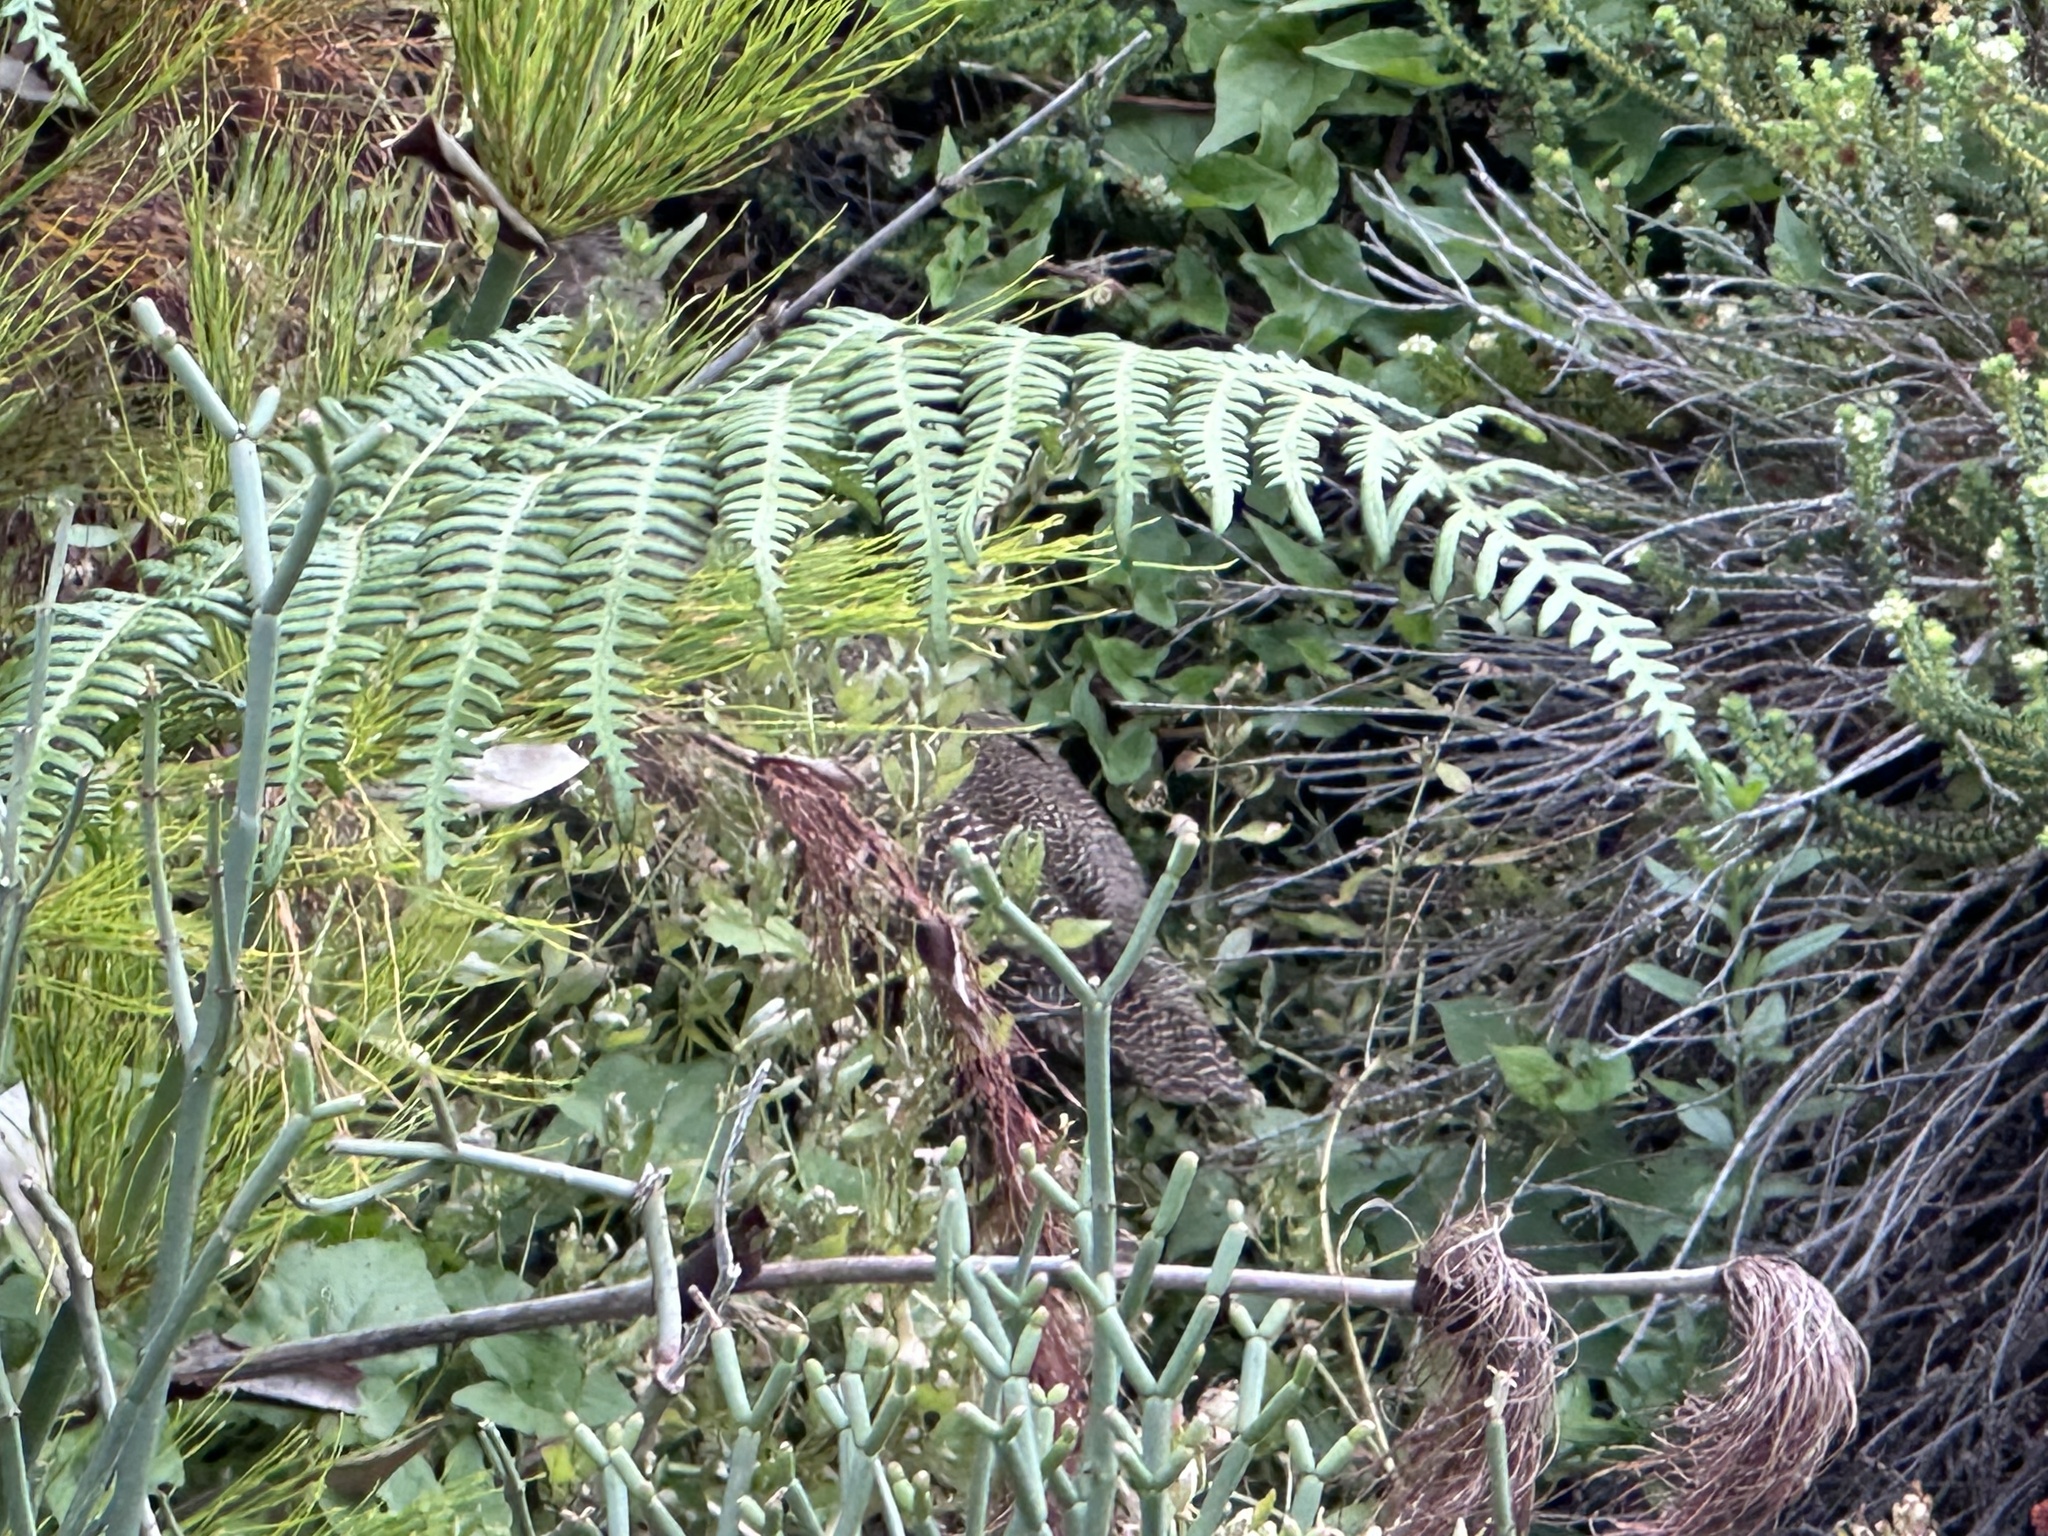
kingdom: Animalia
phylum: Chordata
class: Aves
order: Galliformes
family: Phasianidae
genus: Pternistis
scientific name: Pternistis capensis
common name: Cape spurfowl
